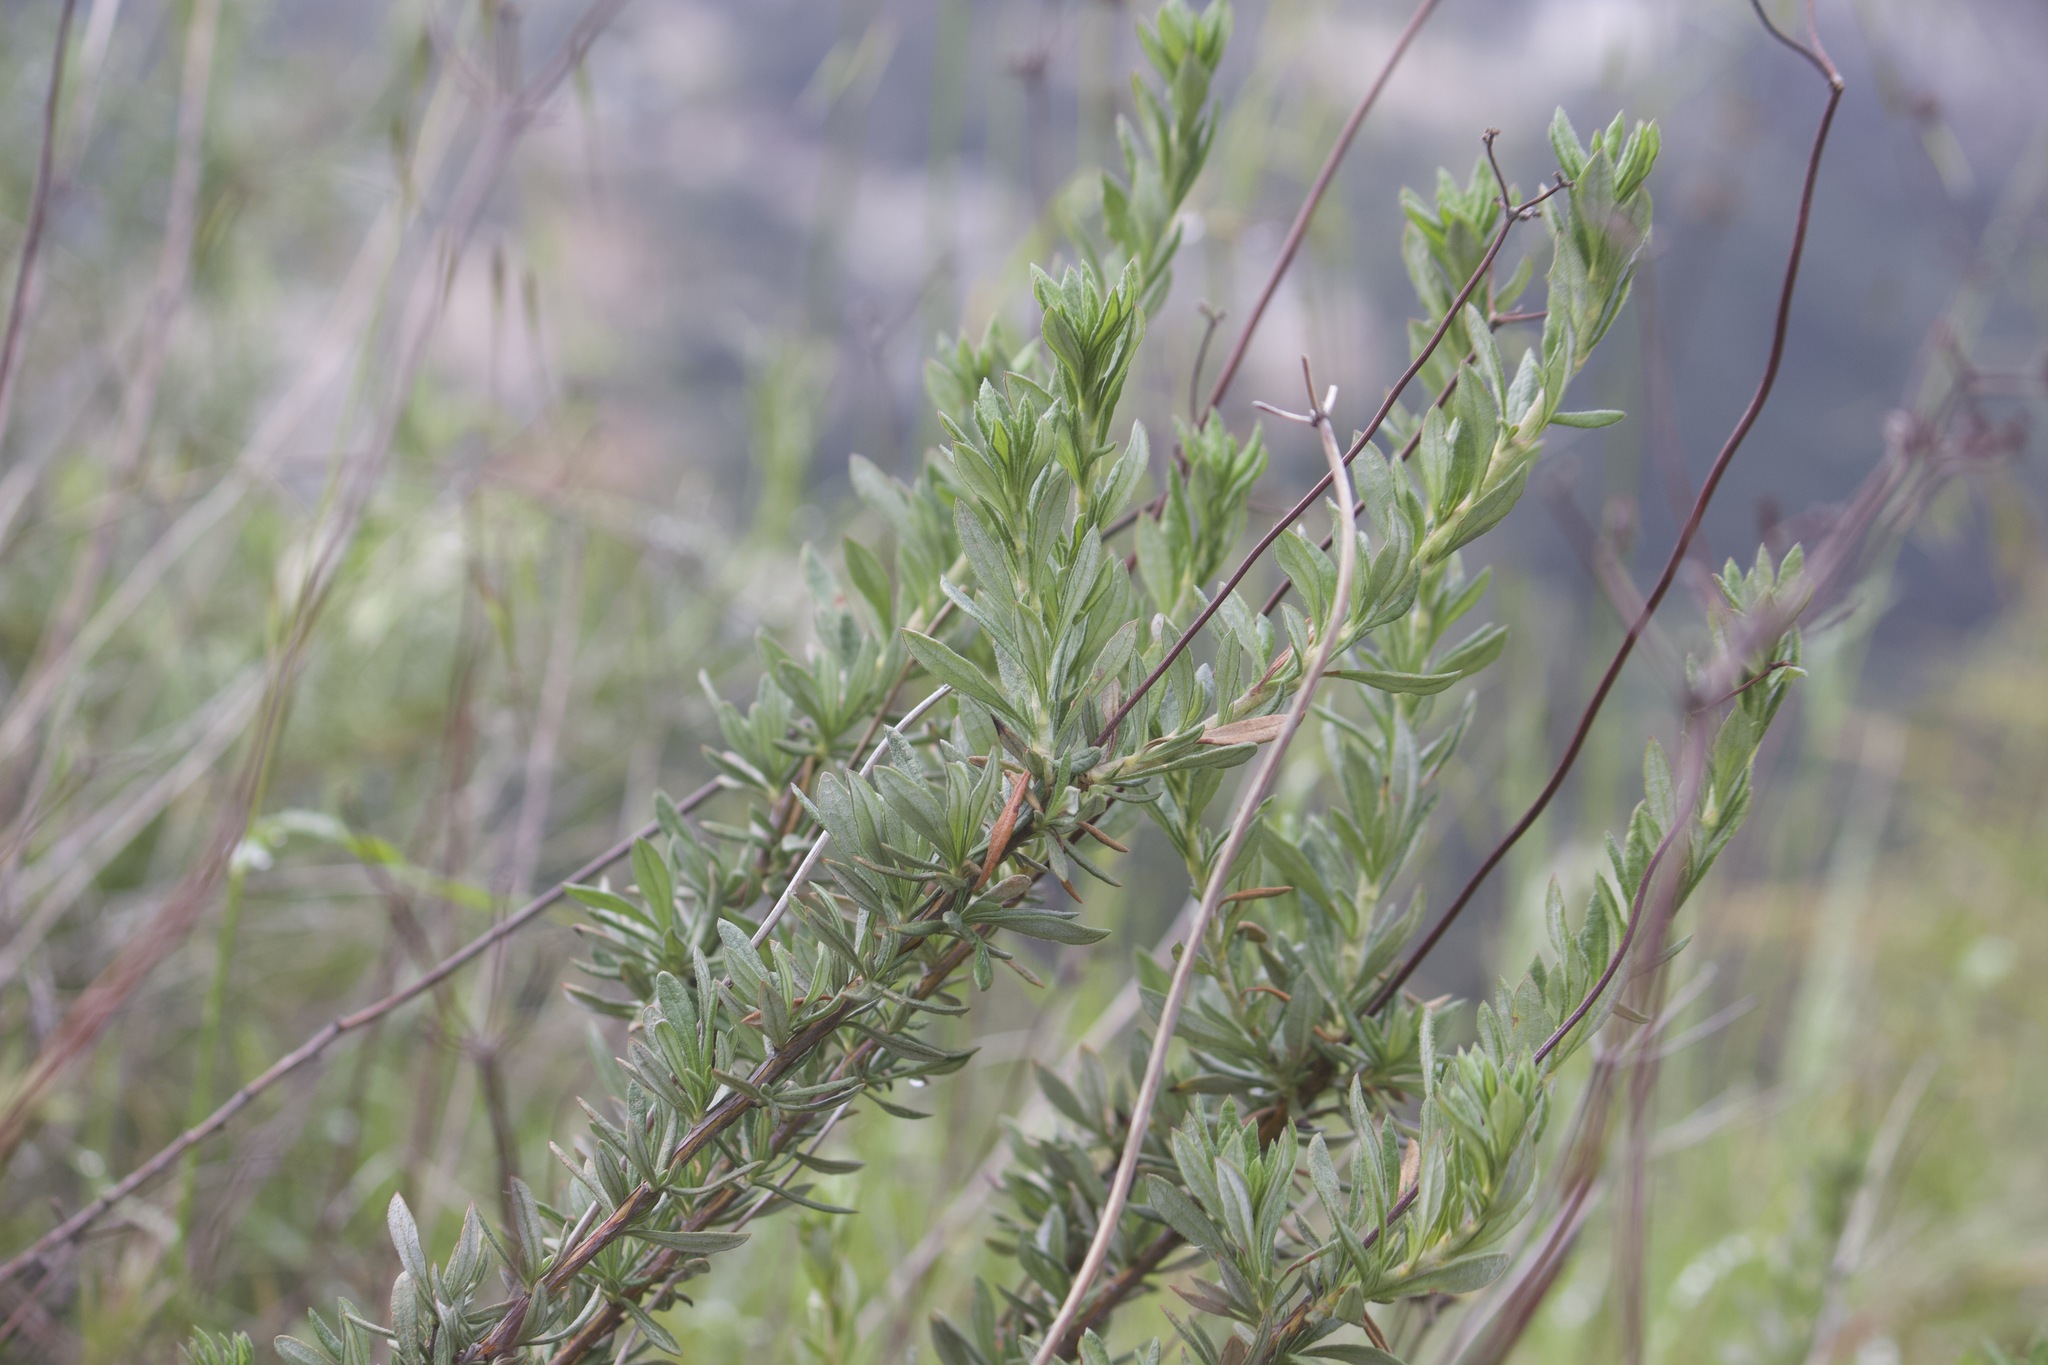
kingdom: Plantae
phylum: Tracheophyta
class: Magnoliopsida
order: Caryophyllales
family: Polygonaceae
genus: Eriogonum
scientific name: Eriogonum fasciculatum
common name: California wild buckwheat
